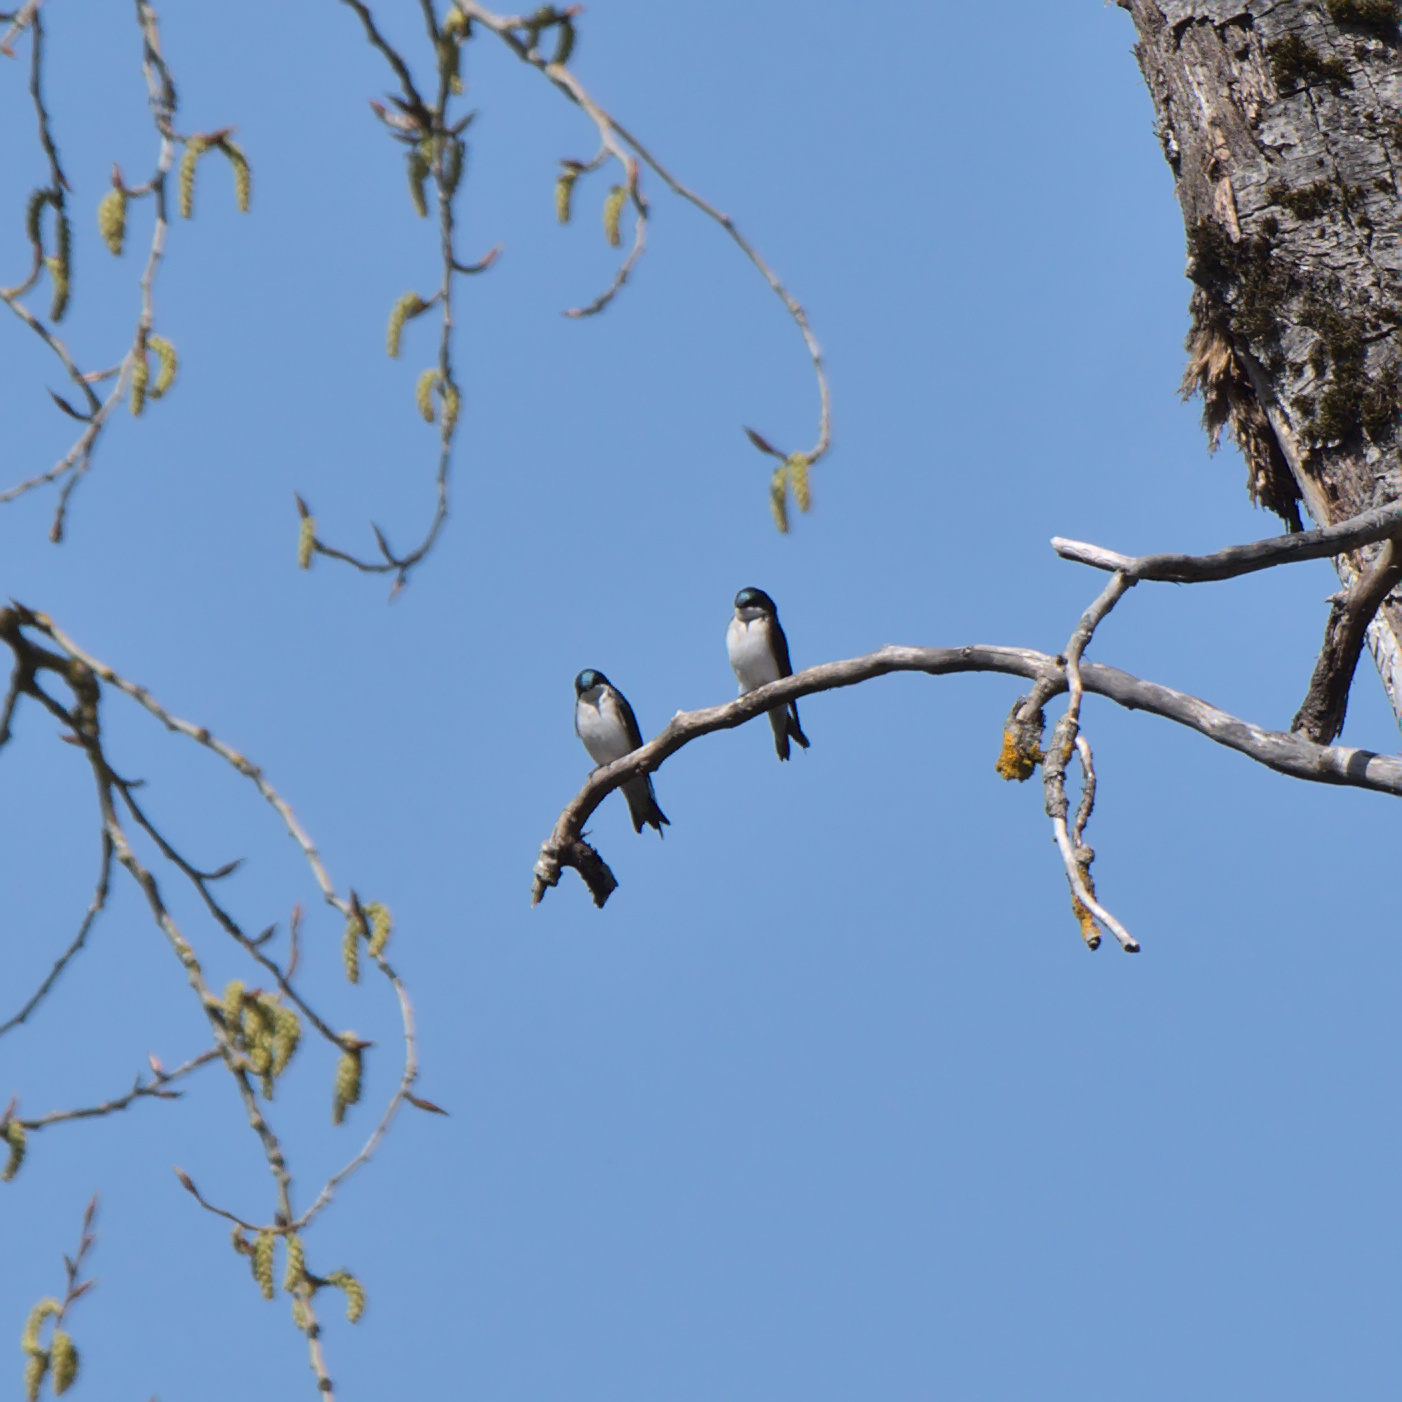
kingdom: Animalia
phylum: Chordata
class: Aves
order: Passeriformes
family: Hirundinidae
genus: Tachycineta
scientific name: Tachycineta bicolor
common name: Tree swallow
